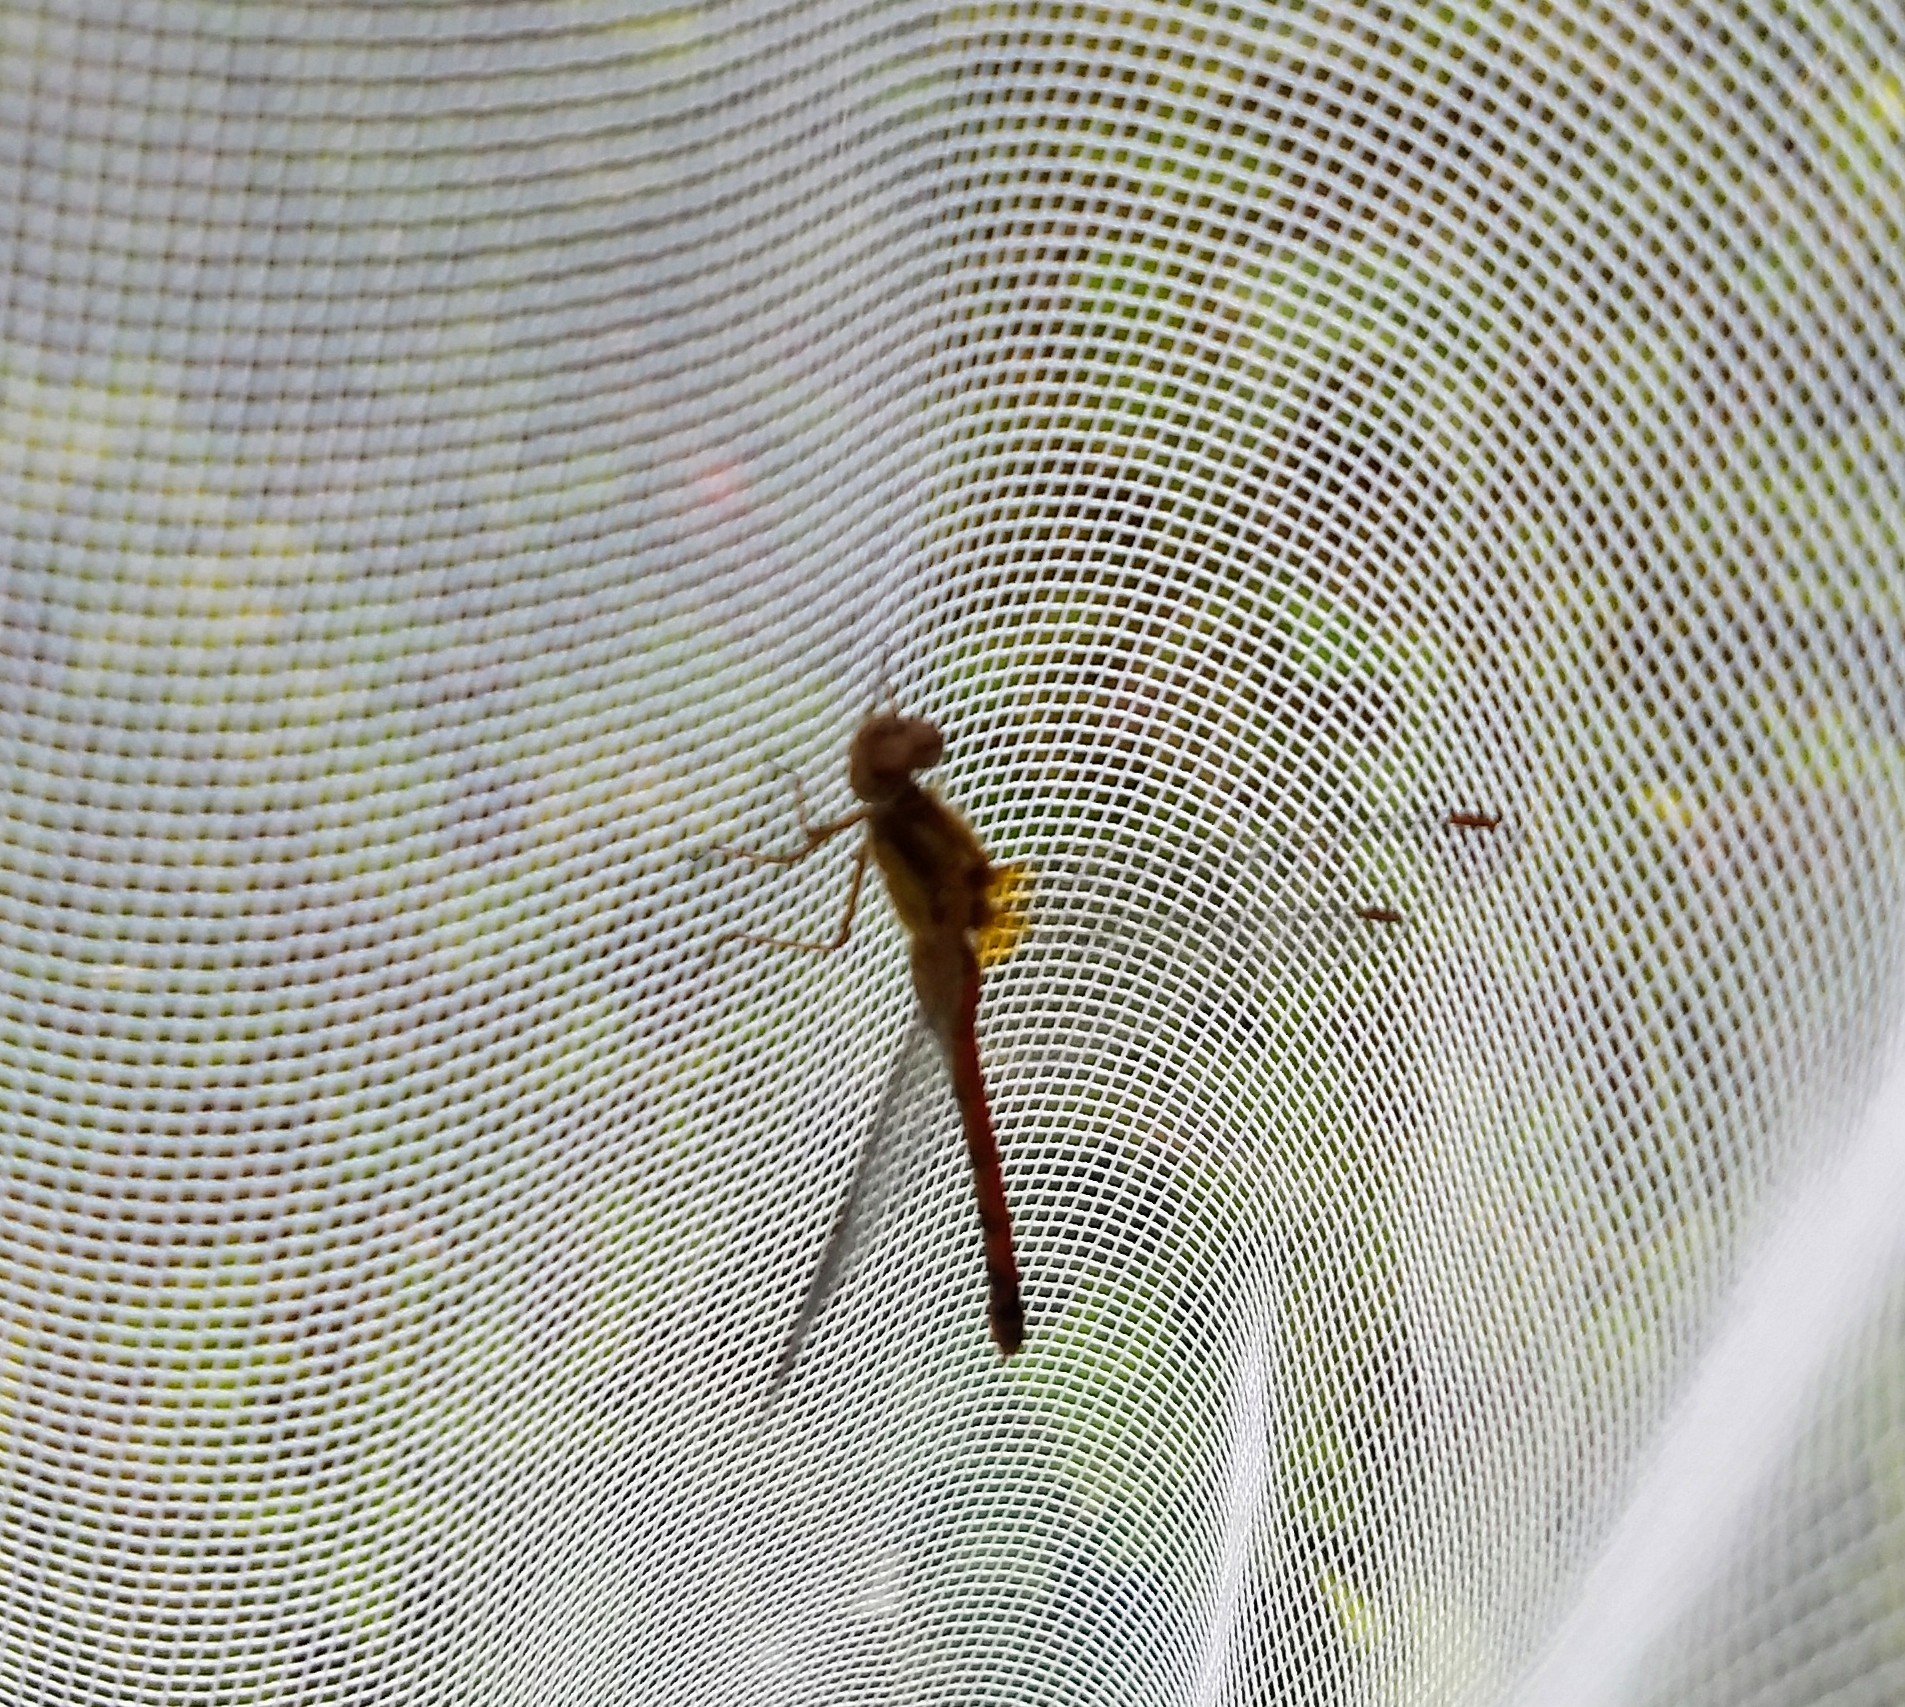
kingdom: Animalia
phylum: Arthropoda
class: Insecta
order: Odonata
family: Libellulidae
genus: Sympetrum
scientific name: Sympetrum vicinum
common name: Autumn meadowhawk
